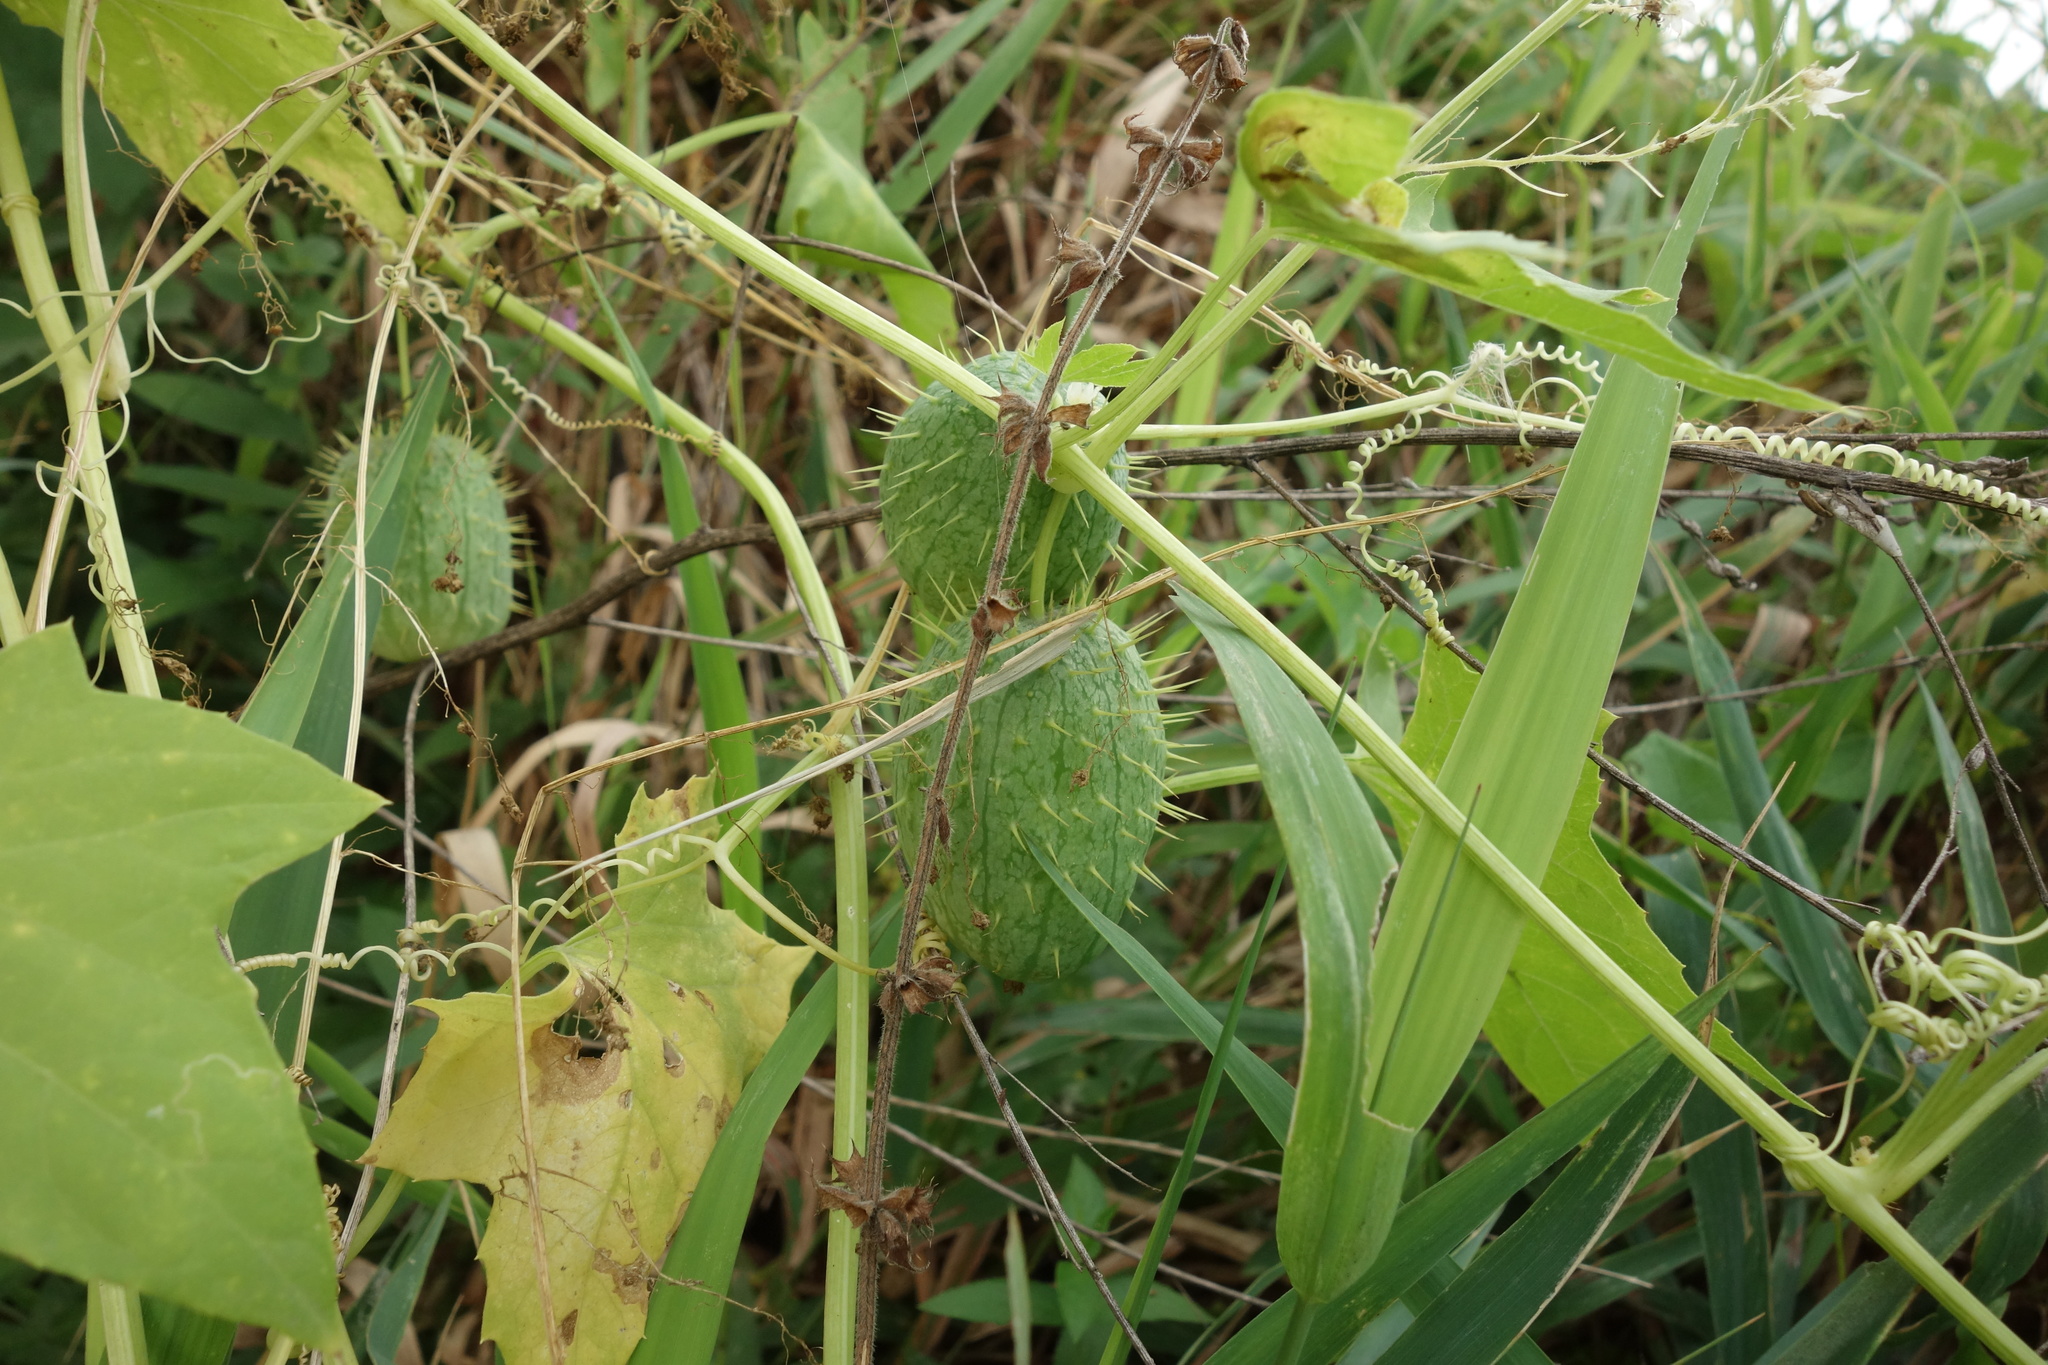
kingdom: Plantae
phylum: Tracheophyta
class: Magnoliopsida
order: Cucurbitales
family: Cucurbitaceae
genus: Echinocystis
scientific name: Echinocystis lobata
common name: Wild cucumber
